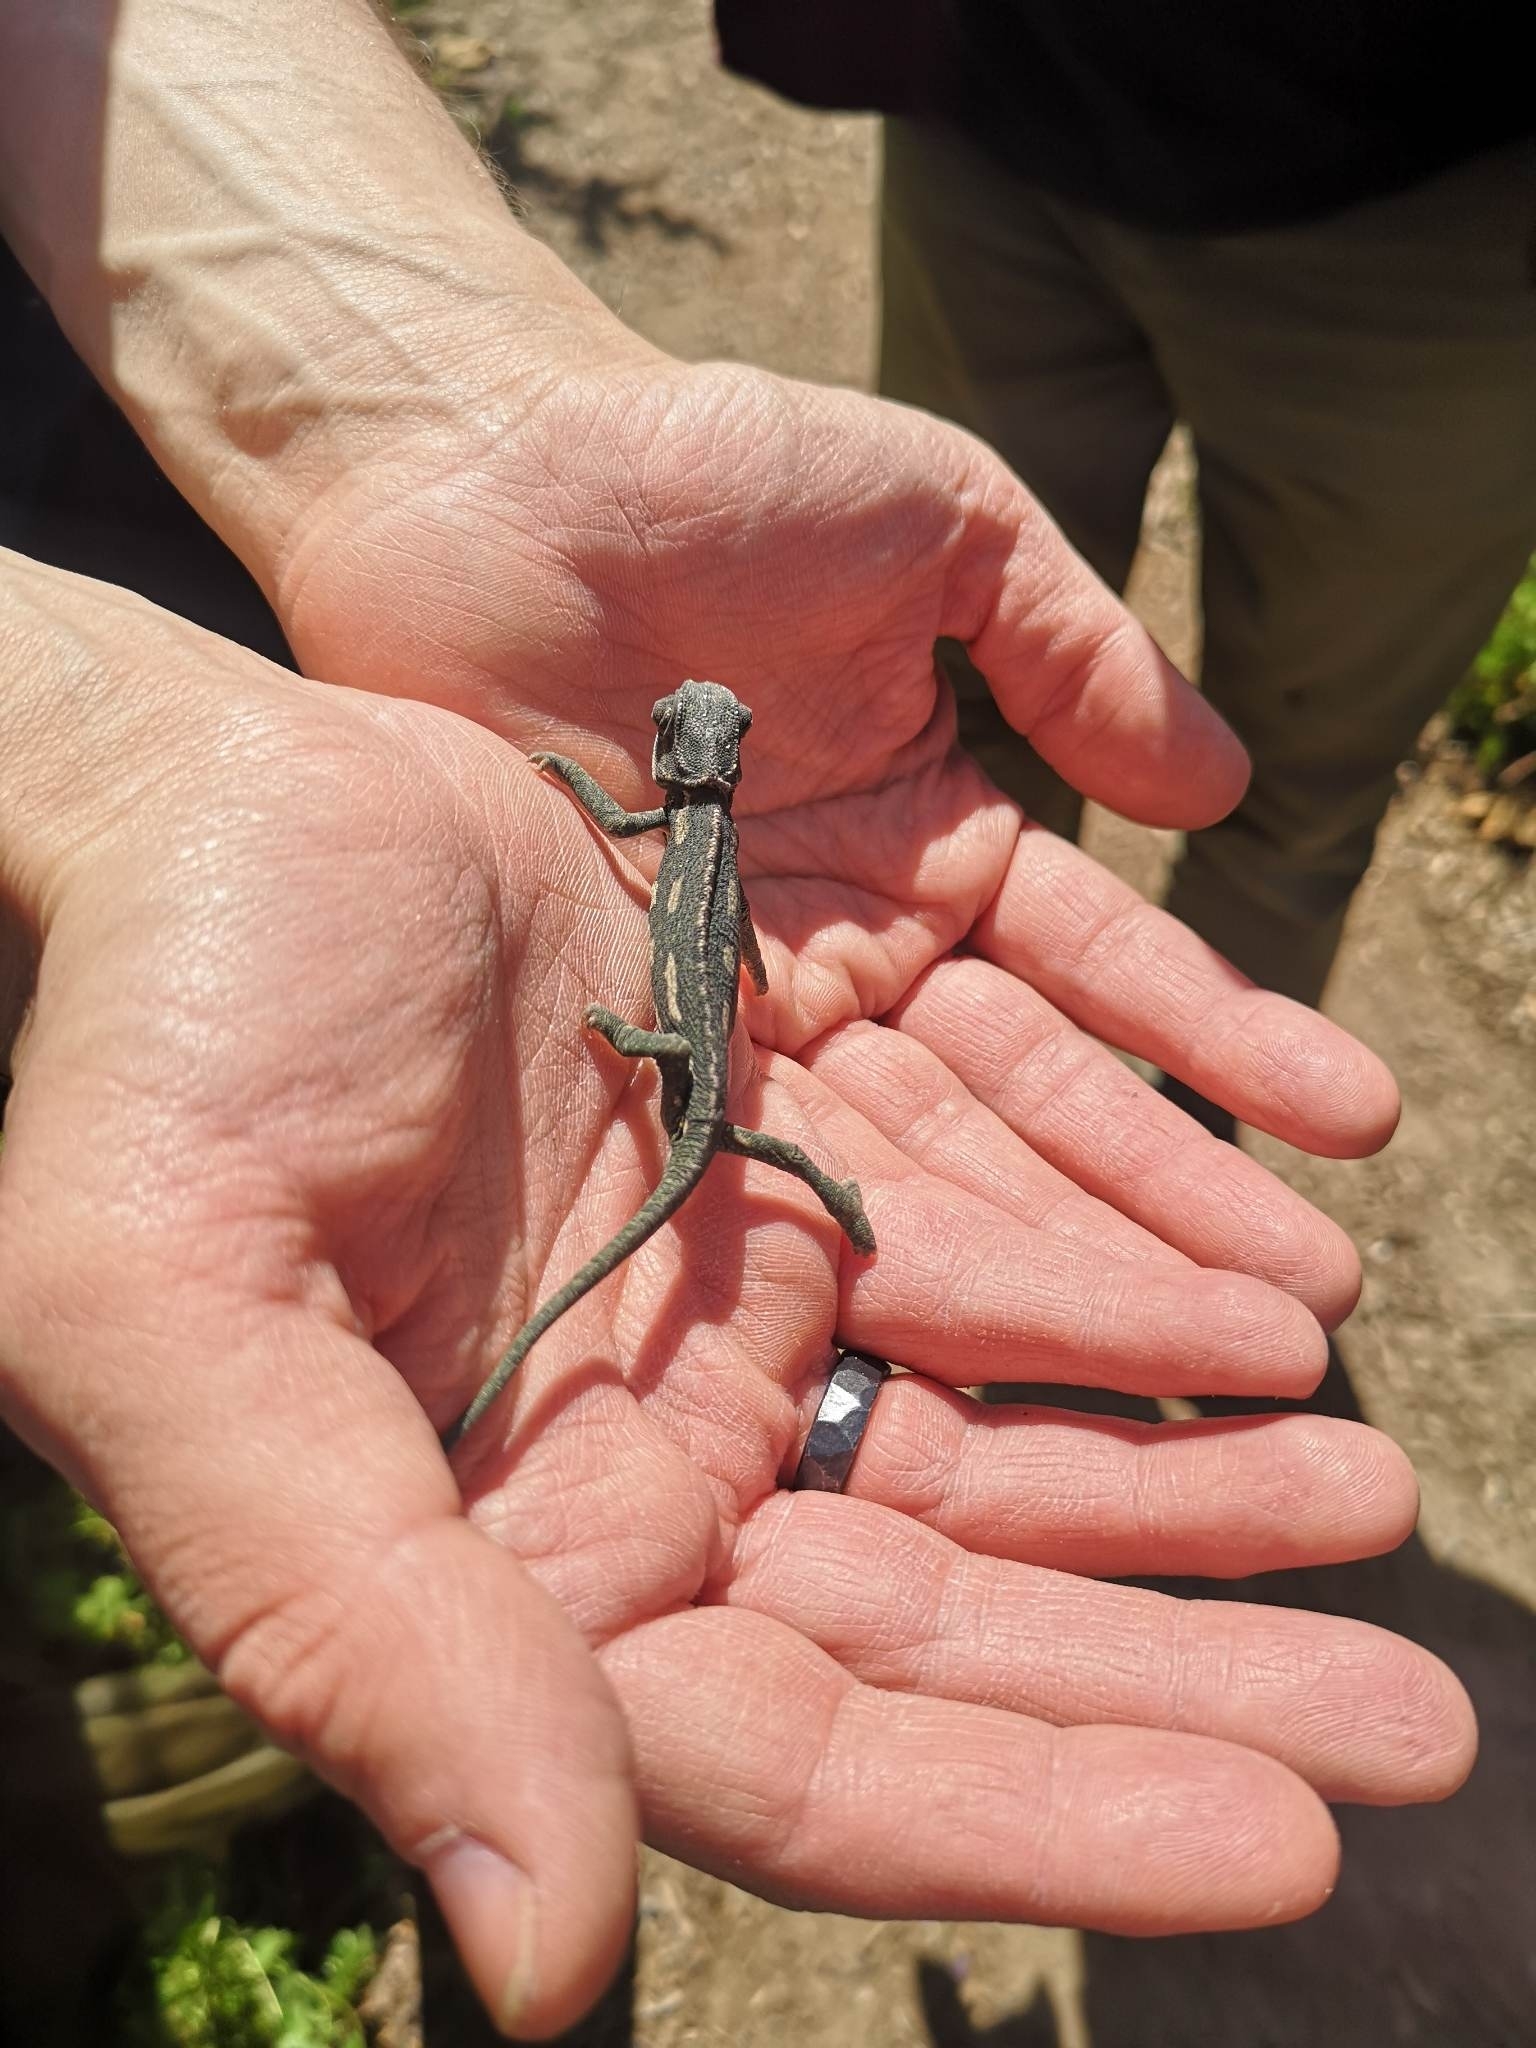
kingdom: Animalia
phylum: Chordata
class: Squamata
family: Chamaeleonidae
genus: Chamaeleo
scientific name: Chamaeleo chamaeleon
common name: Mediterranean chameleon
